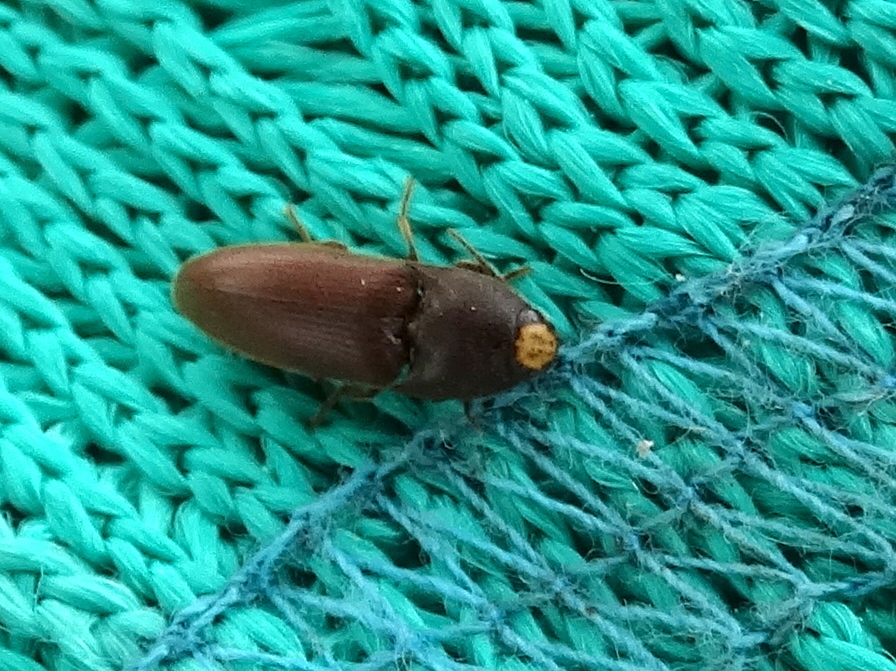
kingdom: Animalia
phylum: Arthropoda
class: Insecta
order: Coleoptera
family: Elateridae
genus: Physorhinus
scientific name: Physorhinus
